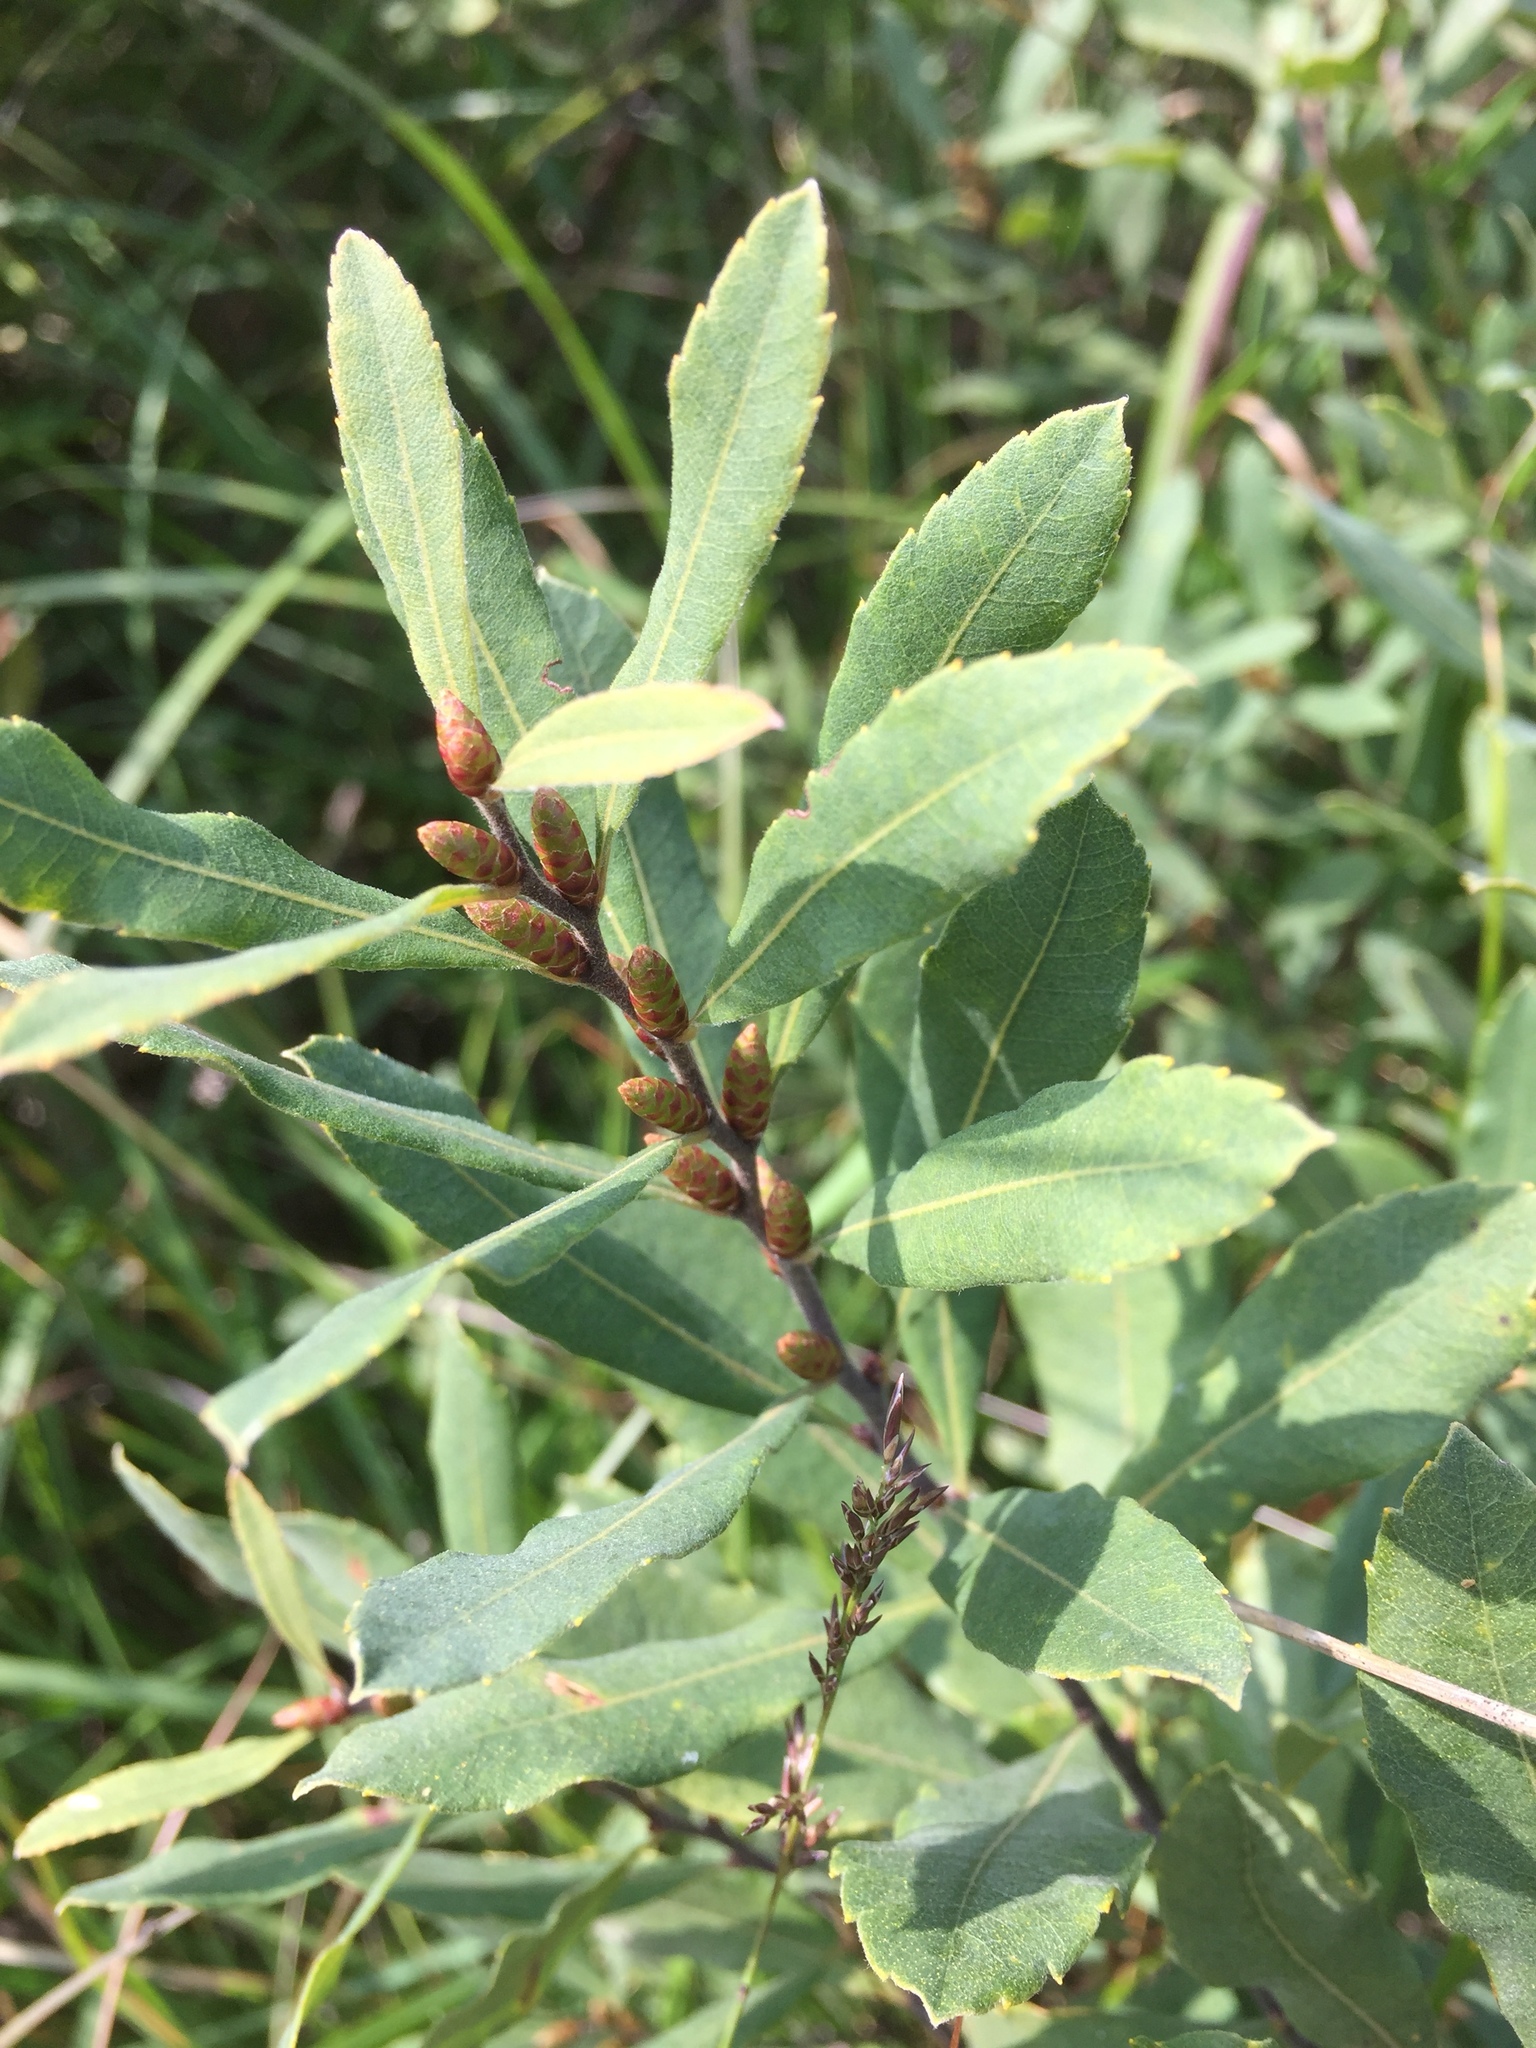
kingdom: Plantae
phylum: Tracheophyta
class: Magnoliopsida
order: Fagales
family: Myricaceae
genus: Myrica
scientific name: Myrica gale
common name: Sweet gale
